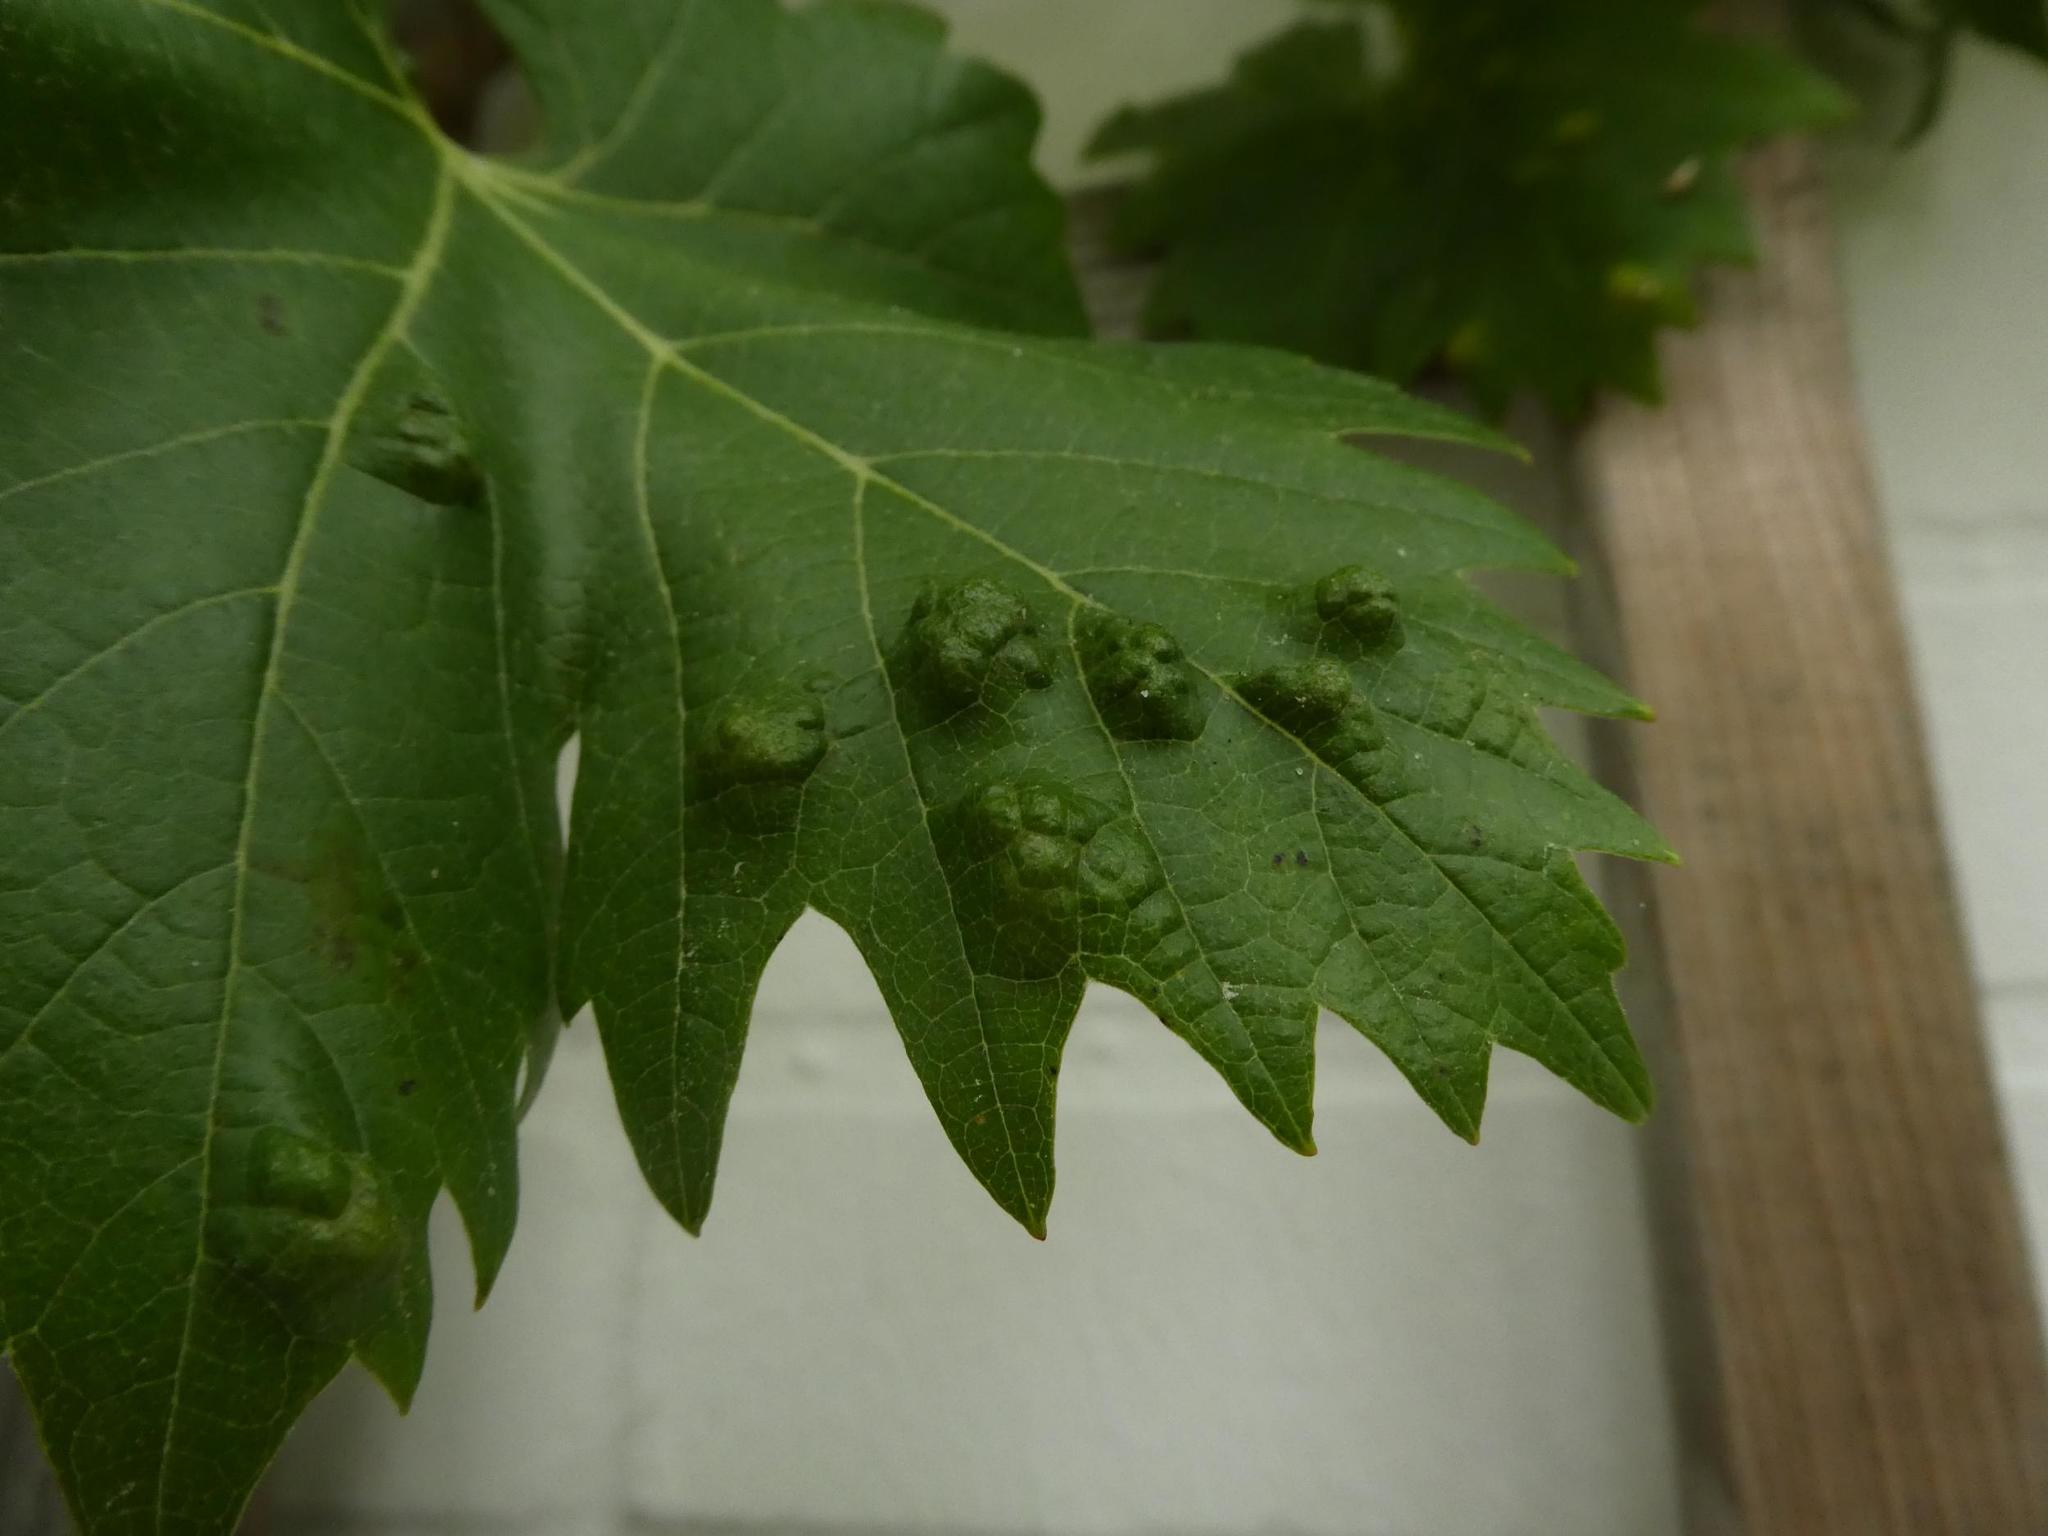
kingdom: Animalia
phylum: Arthropoda
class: Arachnida
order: Trombidiformes
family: Eriophyidae
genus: Colomerus
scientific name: Colomerus vitis
